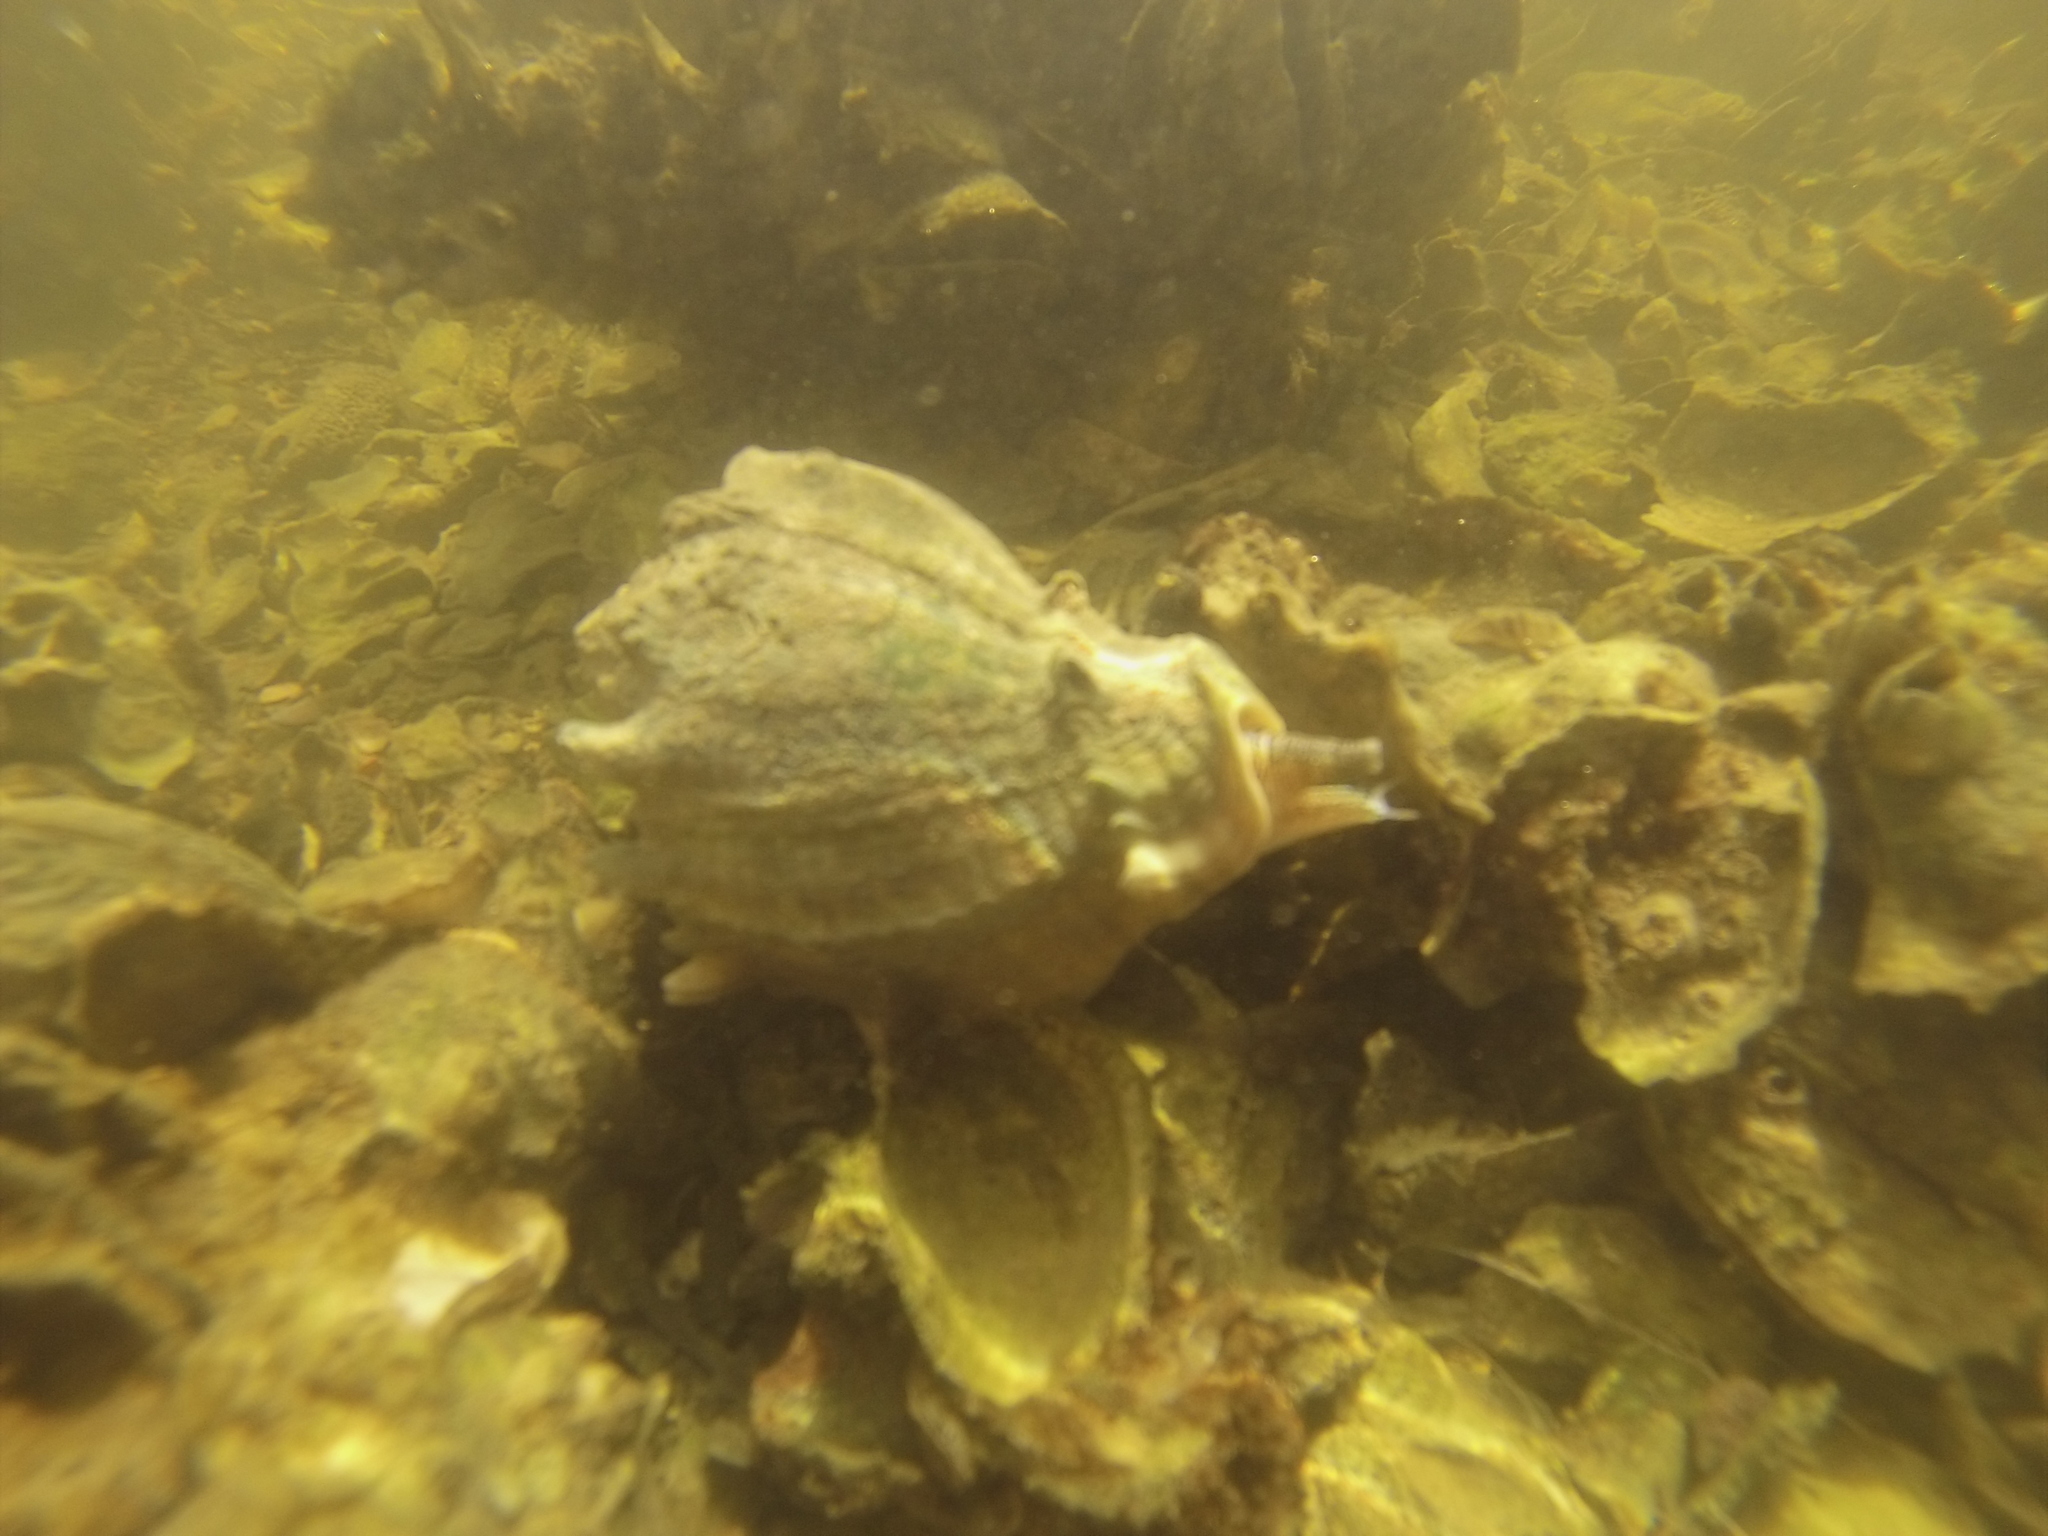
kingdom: Animalia
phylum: Mollusca
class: Gastropoda
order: Neogastropoda
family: Melongenidae
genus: Melongena
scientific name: Melongena corona
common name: American crown conch
